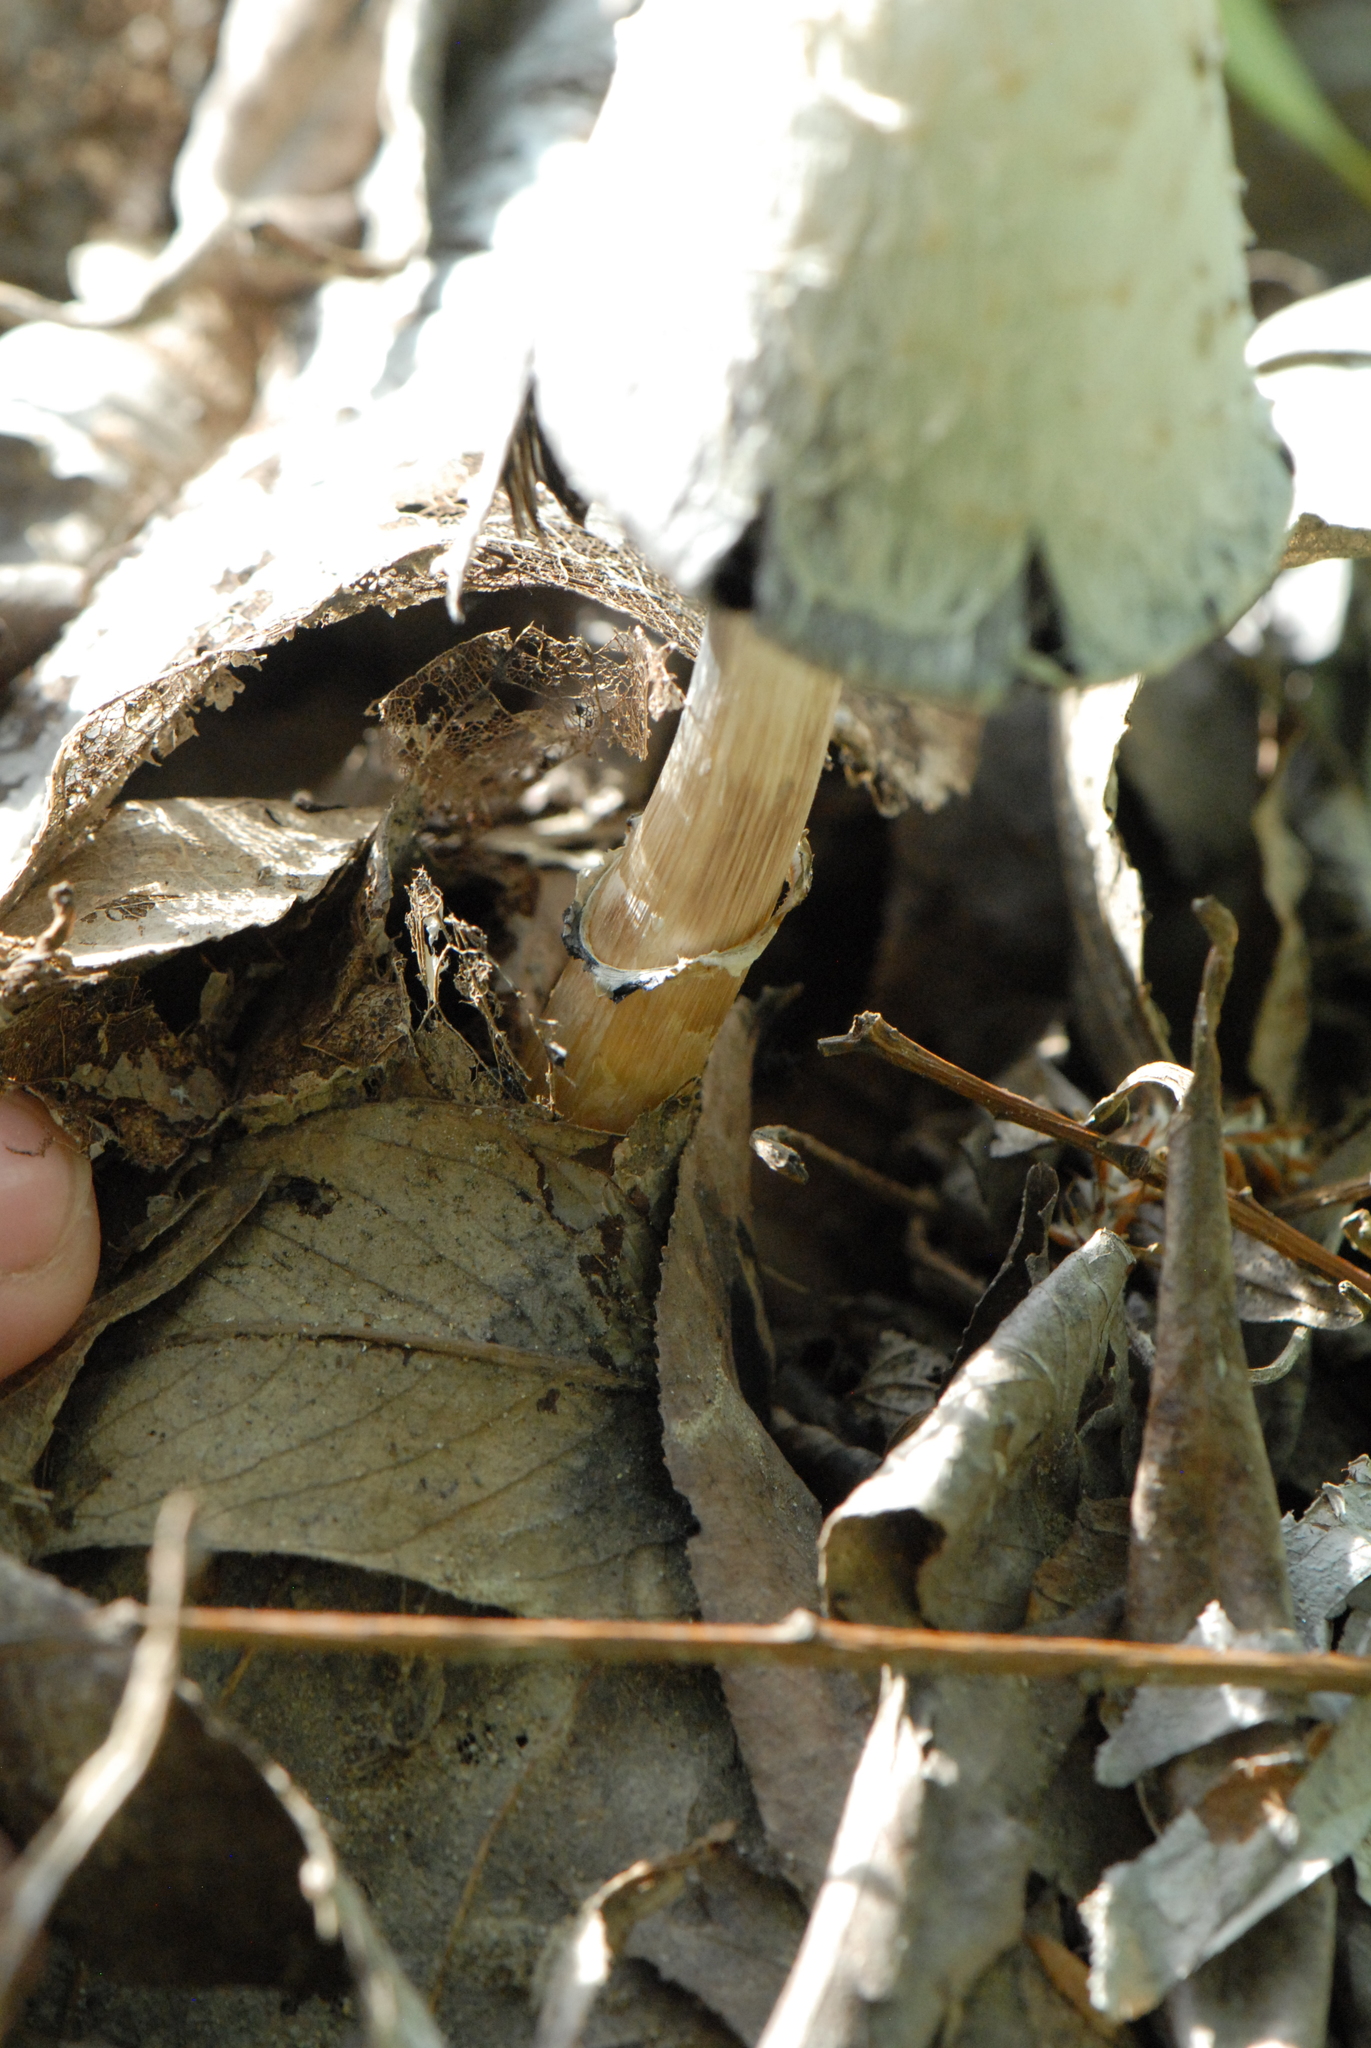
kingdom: Fungi
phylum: Basidiomycota
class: Agaricomycetes
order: Agaricales
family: Agaricaceae
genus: Coprinus
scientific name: Coprinus comatus
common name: Lawyer's wig
